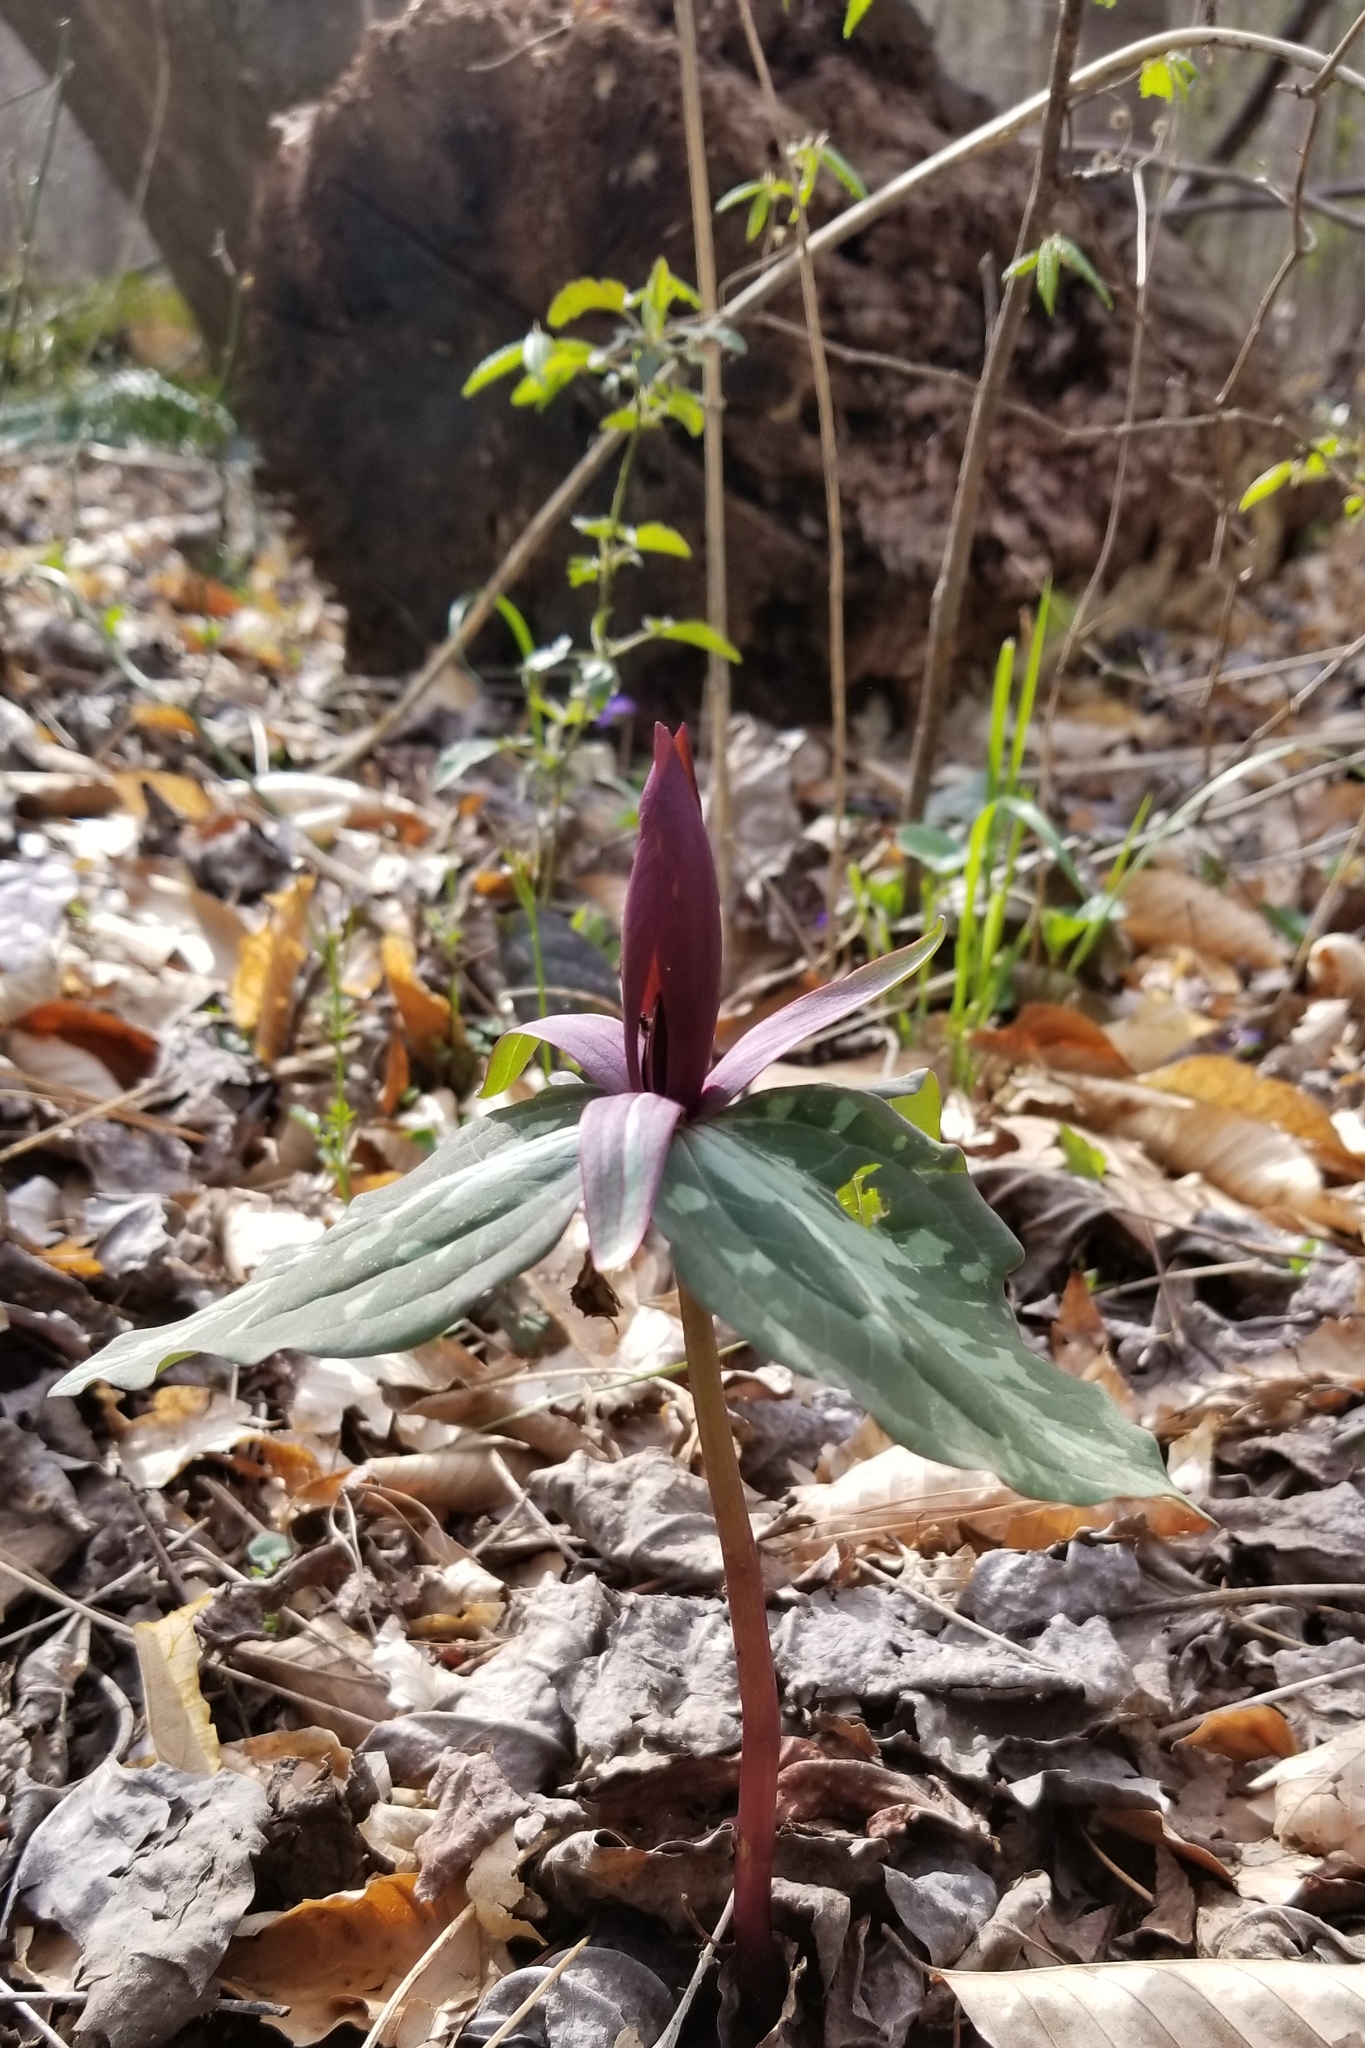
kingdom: Plantae
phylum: Tracheophyta
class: Liliopsida
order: Liliales
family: Melanthiaceae
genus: Trillium
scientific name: Trillium cuneatum
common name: Cuneate trillium
